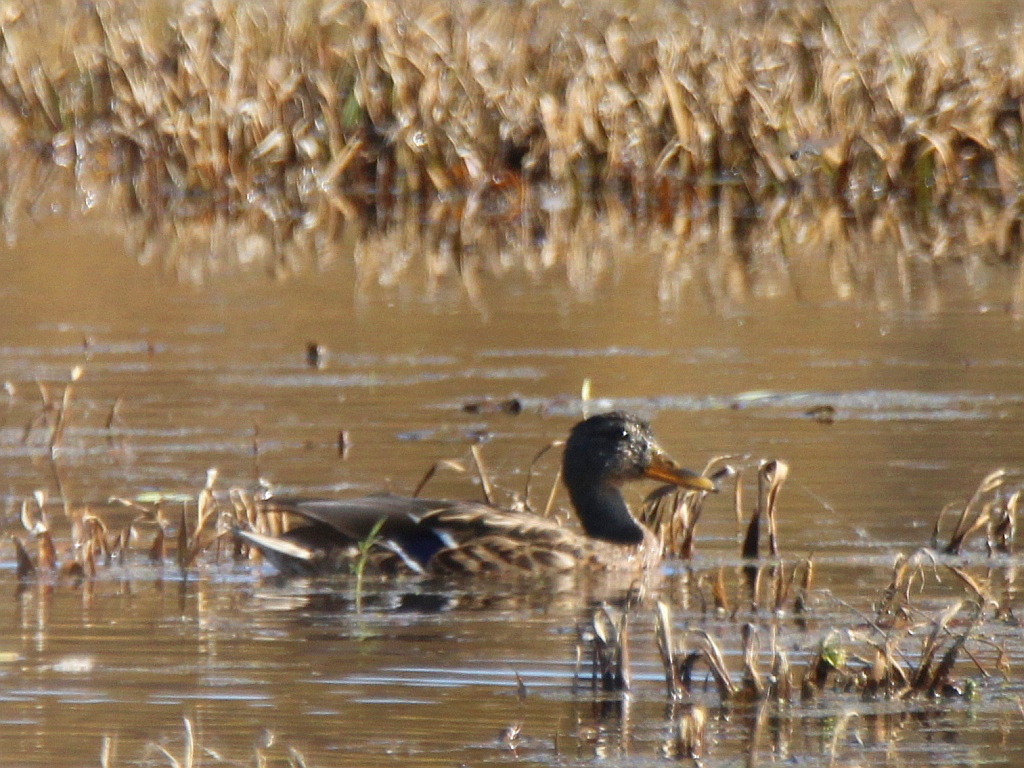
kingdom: Animalia
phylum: Chordata
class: Aves
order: Anseriformes
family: Anatidae
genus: Anas
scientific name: Anas platyrhynchos
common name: Mallard
